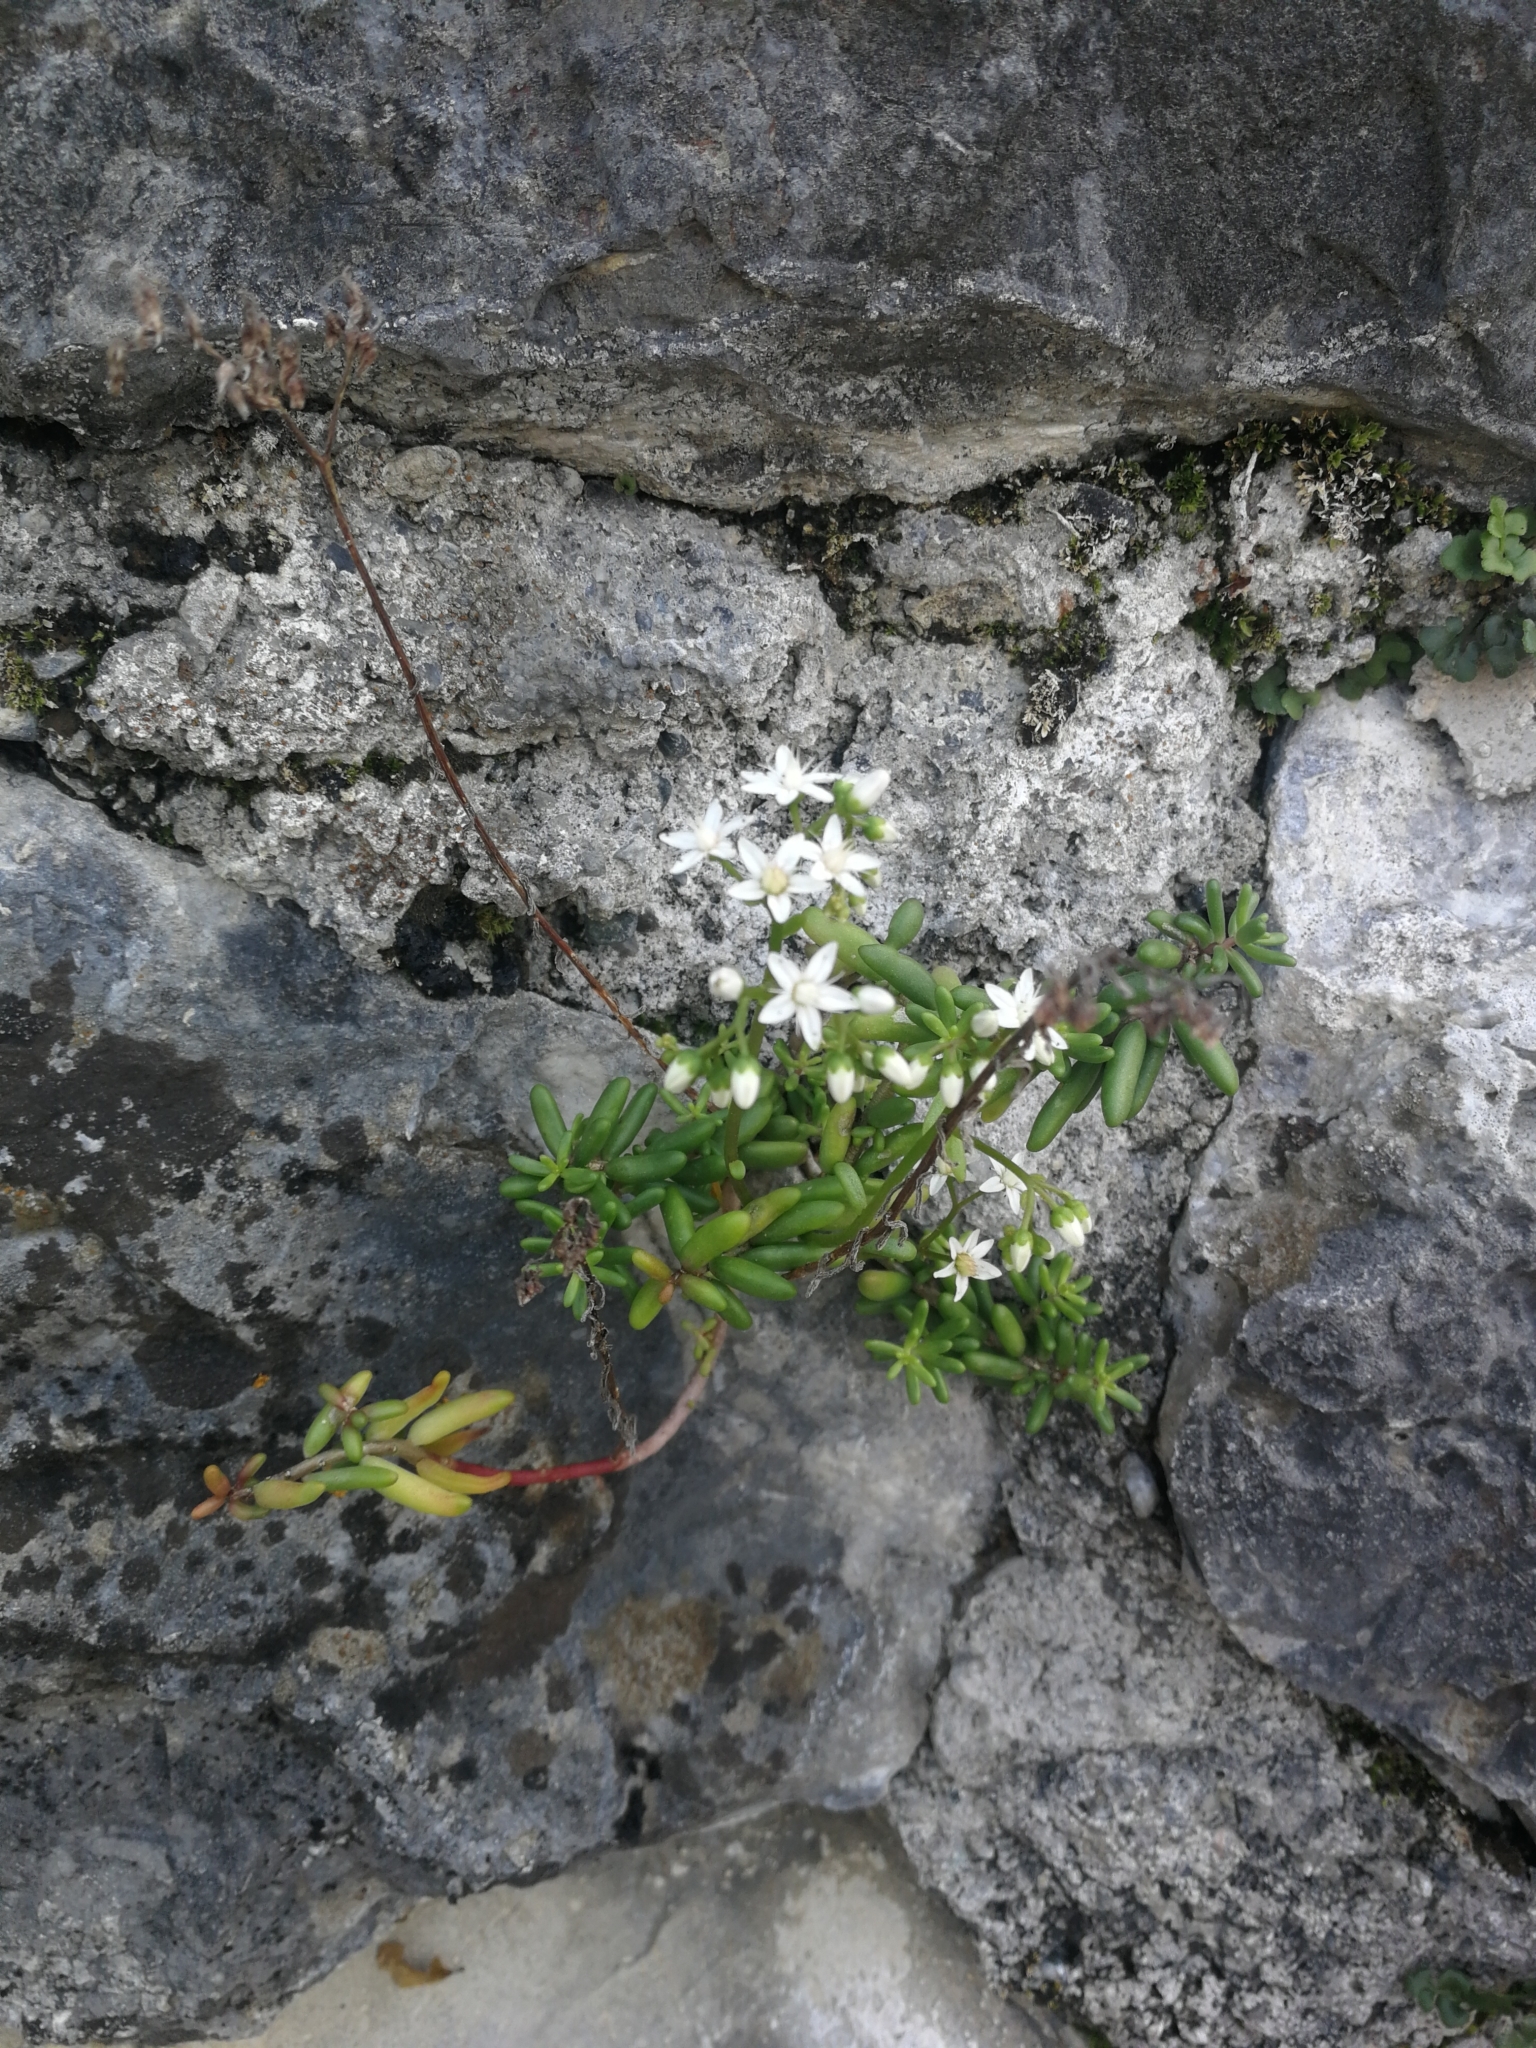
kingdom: Plantae
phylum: Tracheophyta
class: Magnoliopsida
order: Saxifragales
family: Crassulaceae
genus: Sedum
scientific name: Sedum album
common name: White stonecrop
